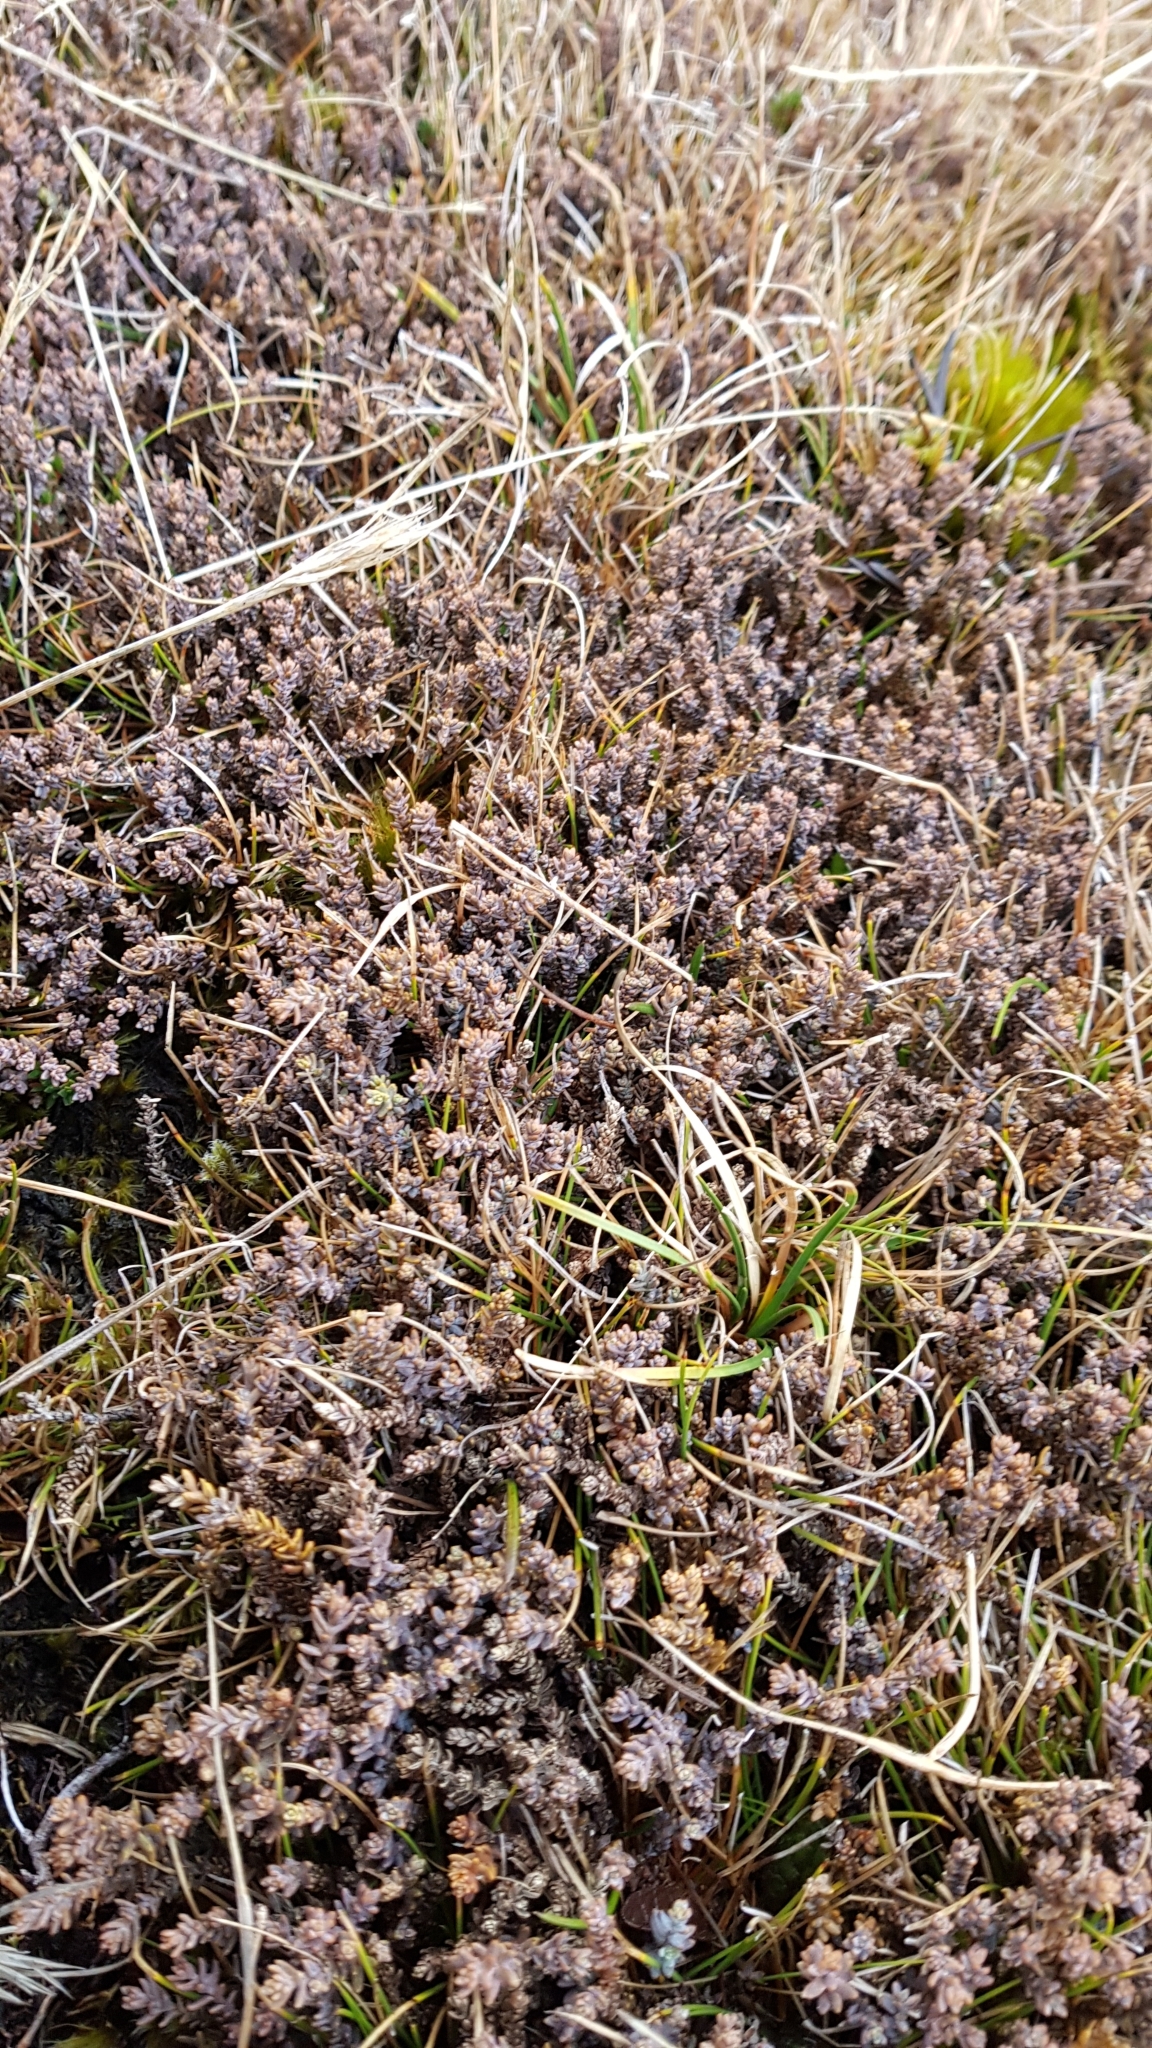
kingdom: Plantae
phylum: Tracheophyta
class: Pinopsida
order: Pinales
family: Podocarpaceae
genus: Lepidothamnus
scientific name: Lepidothamnus laxifolius
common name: Pygmy pine
